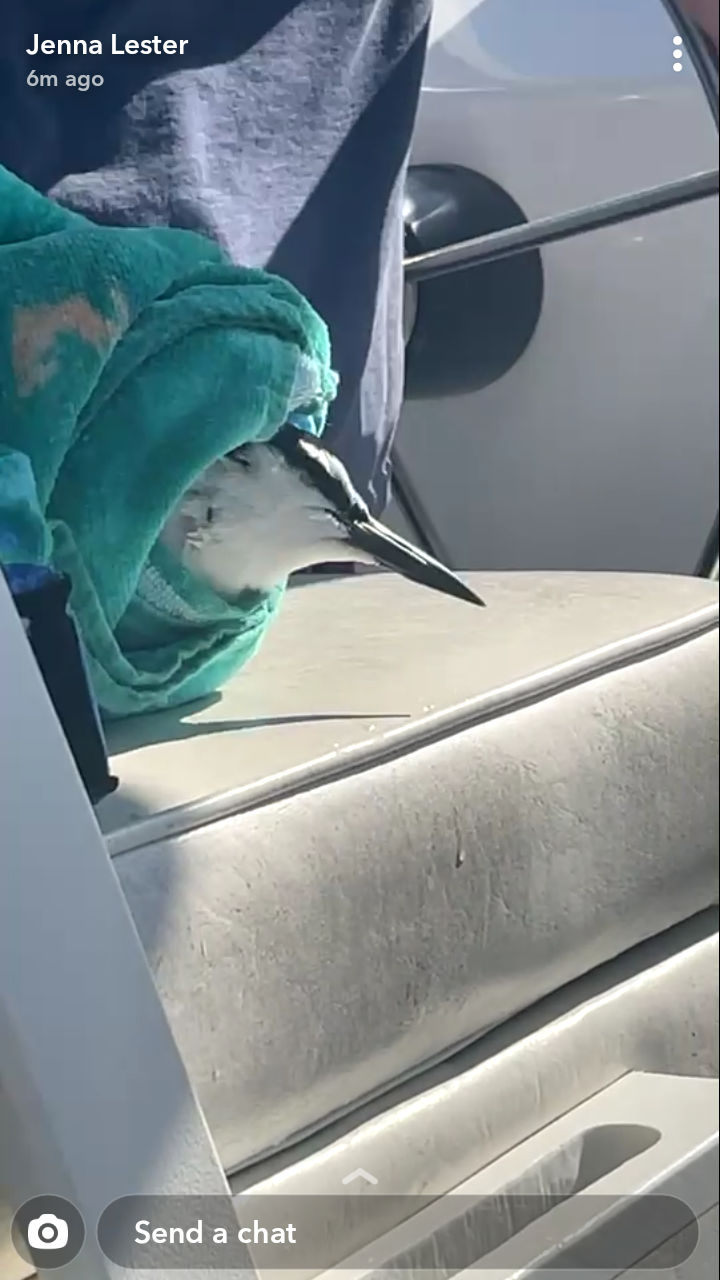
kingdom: Animalia
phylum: Chordata
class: Aves
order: Charadriiformes
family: Laridae
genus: Onychoprion
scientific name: Onychoprion anaethetus
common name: Bridled tern
